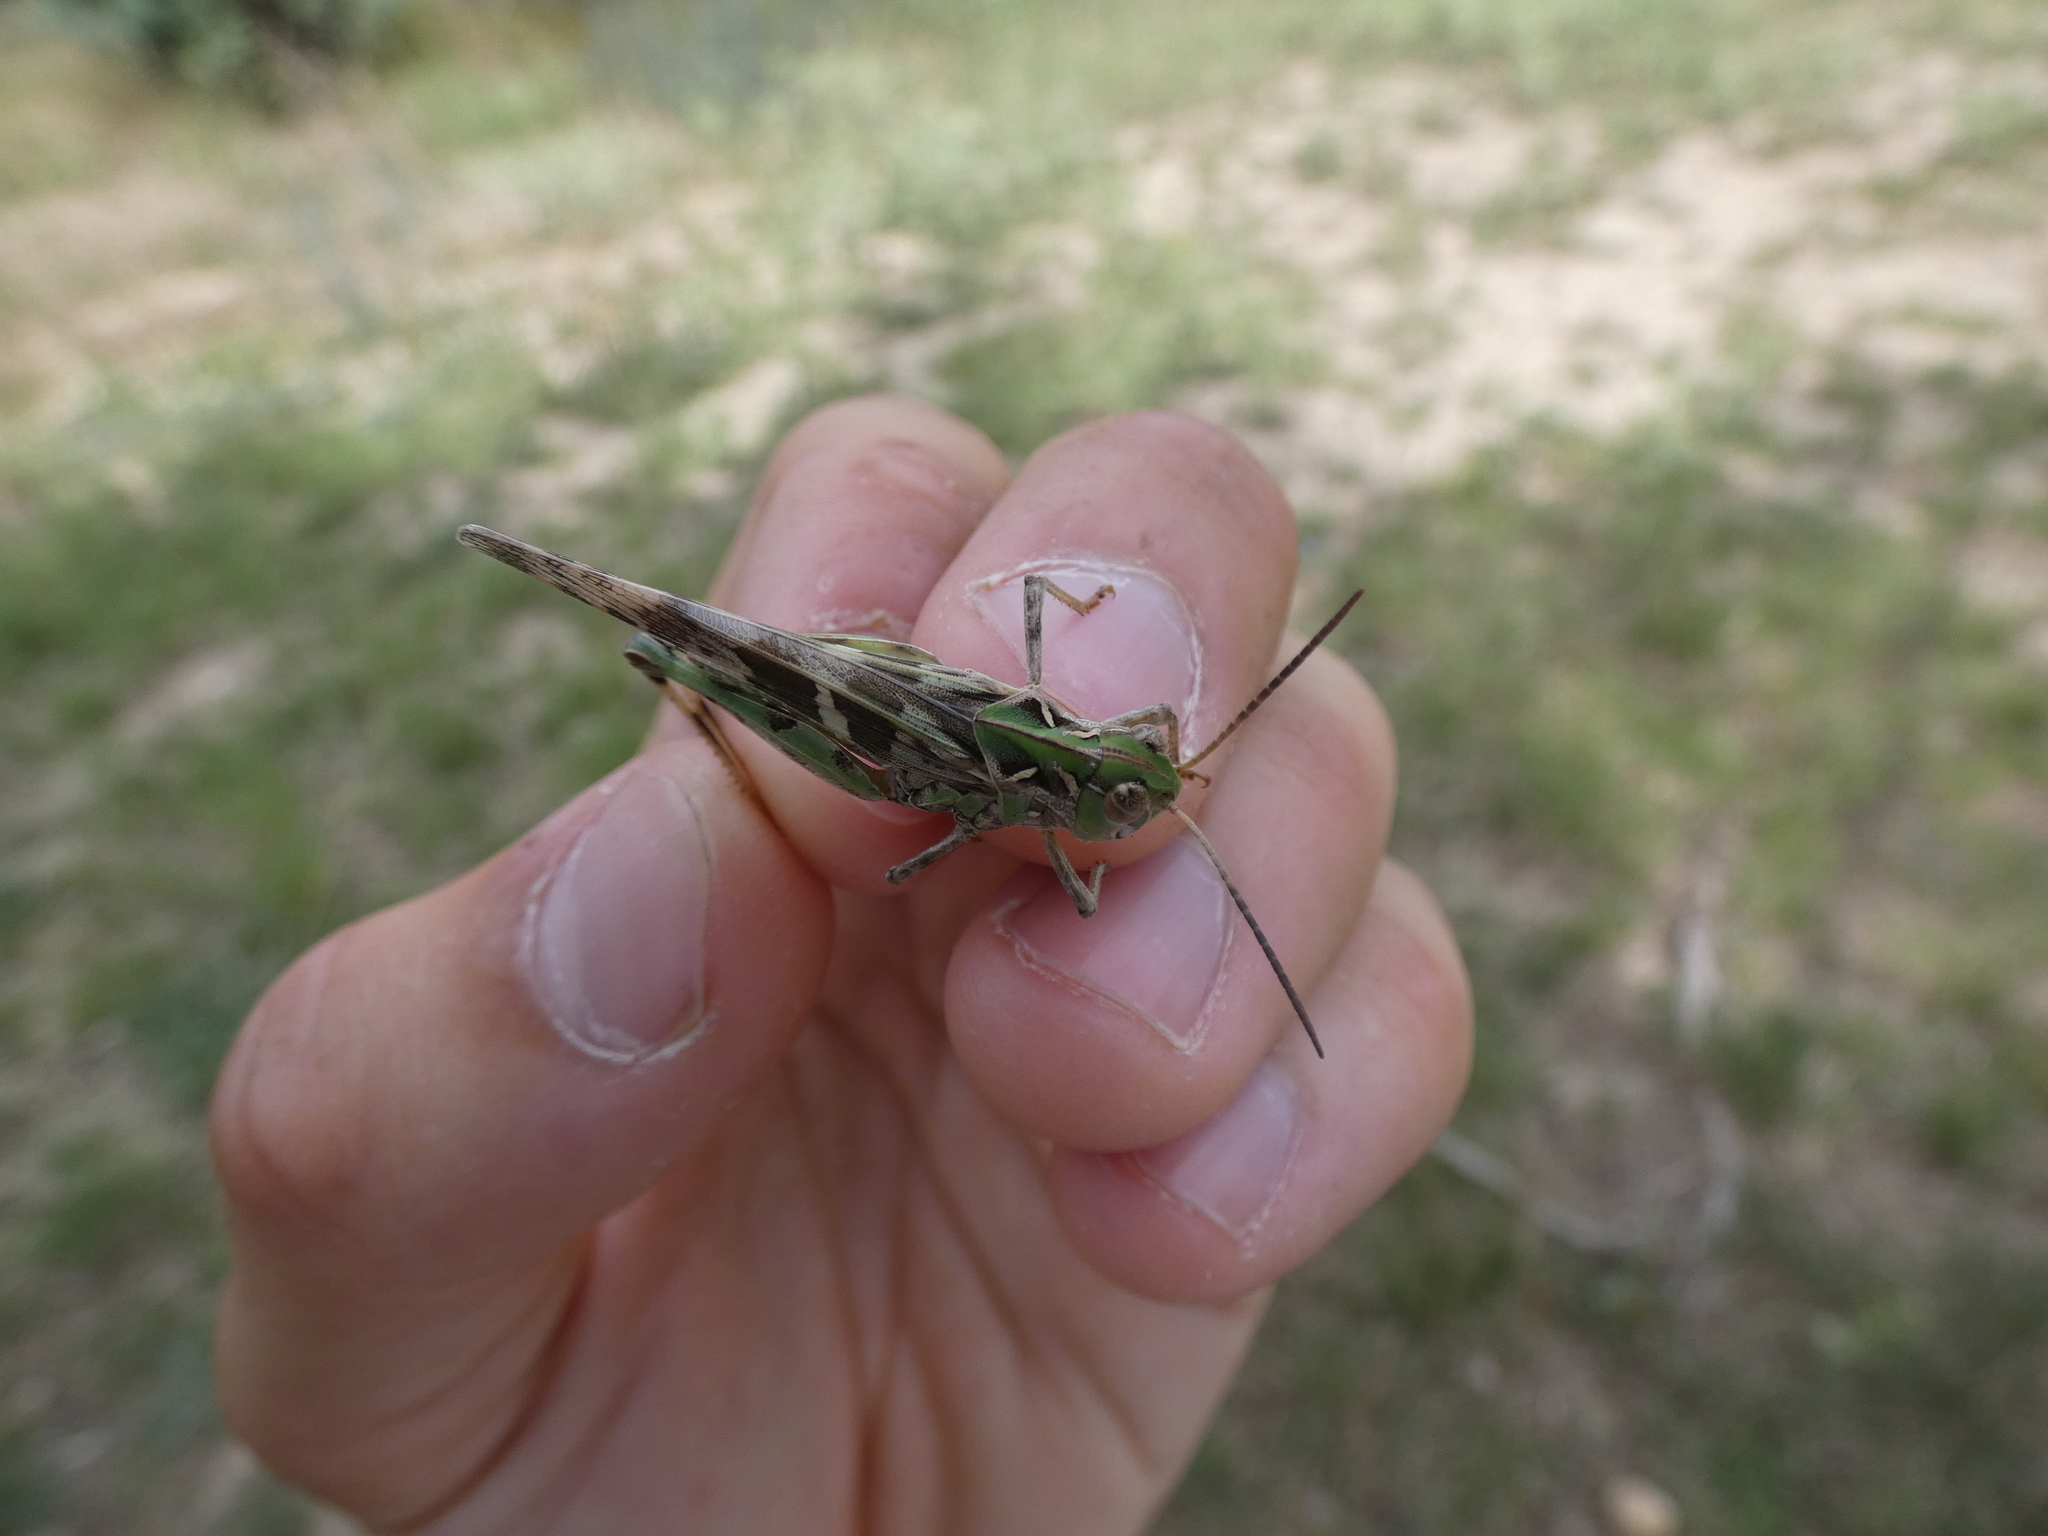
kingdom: Animalia
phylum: Arthropoda
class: Insecta
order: Orthoptera
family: Acrididae
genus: Oedaleus
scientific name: Oedaleus decorus
